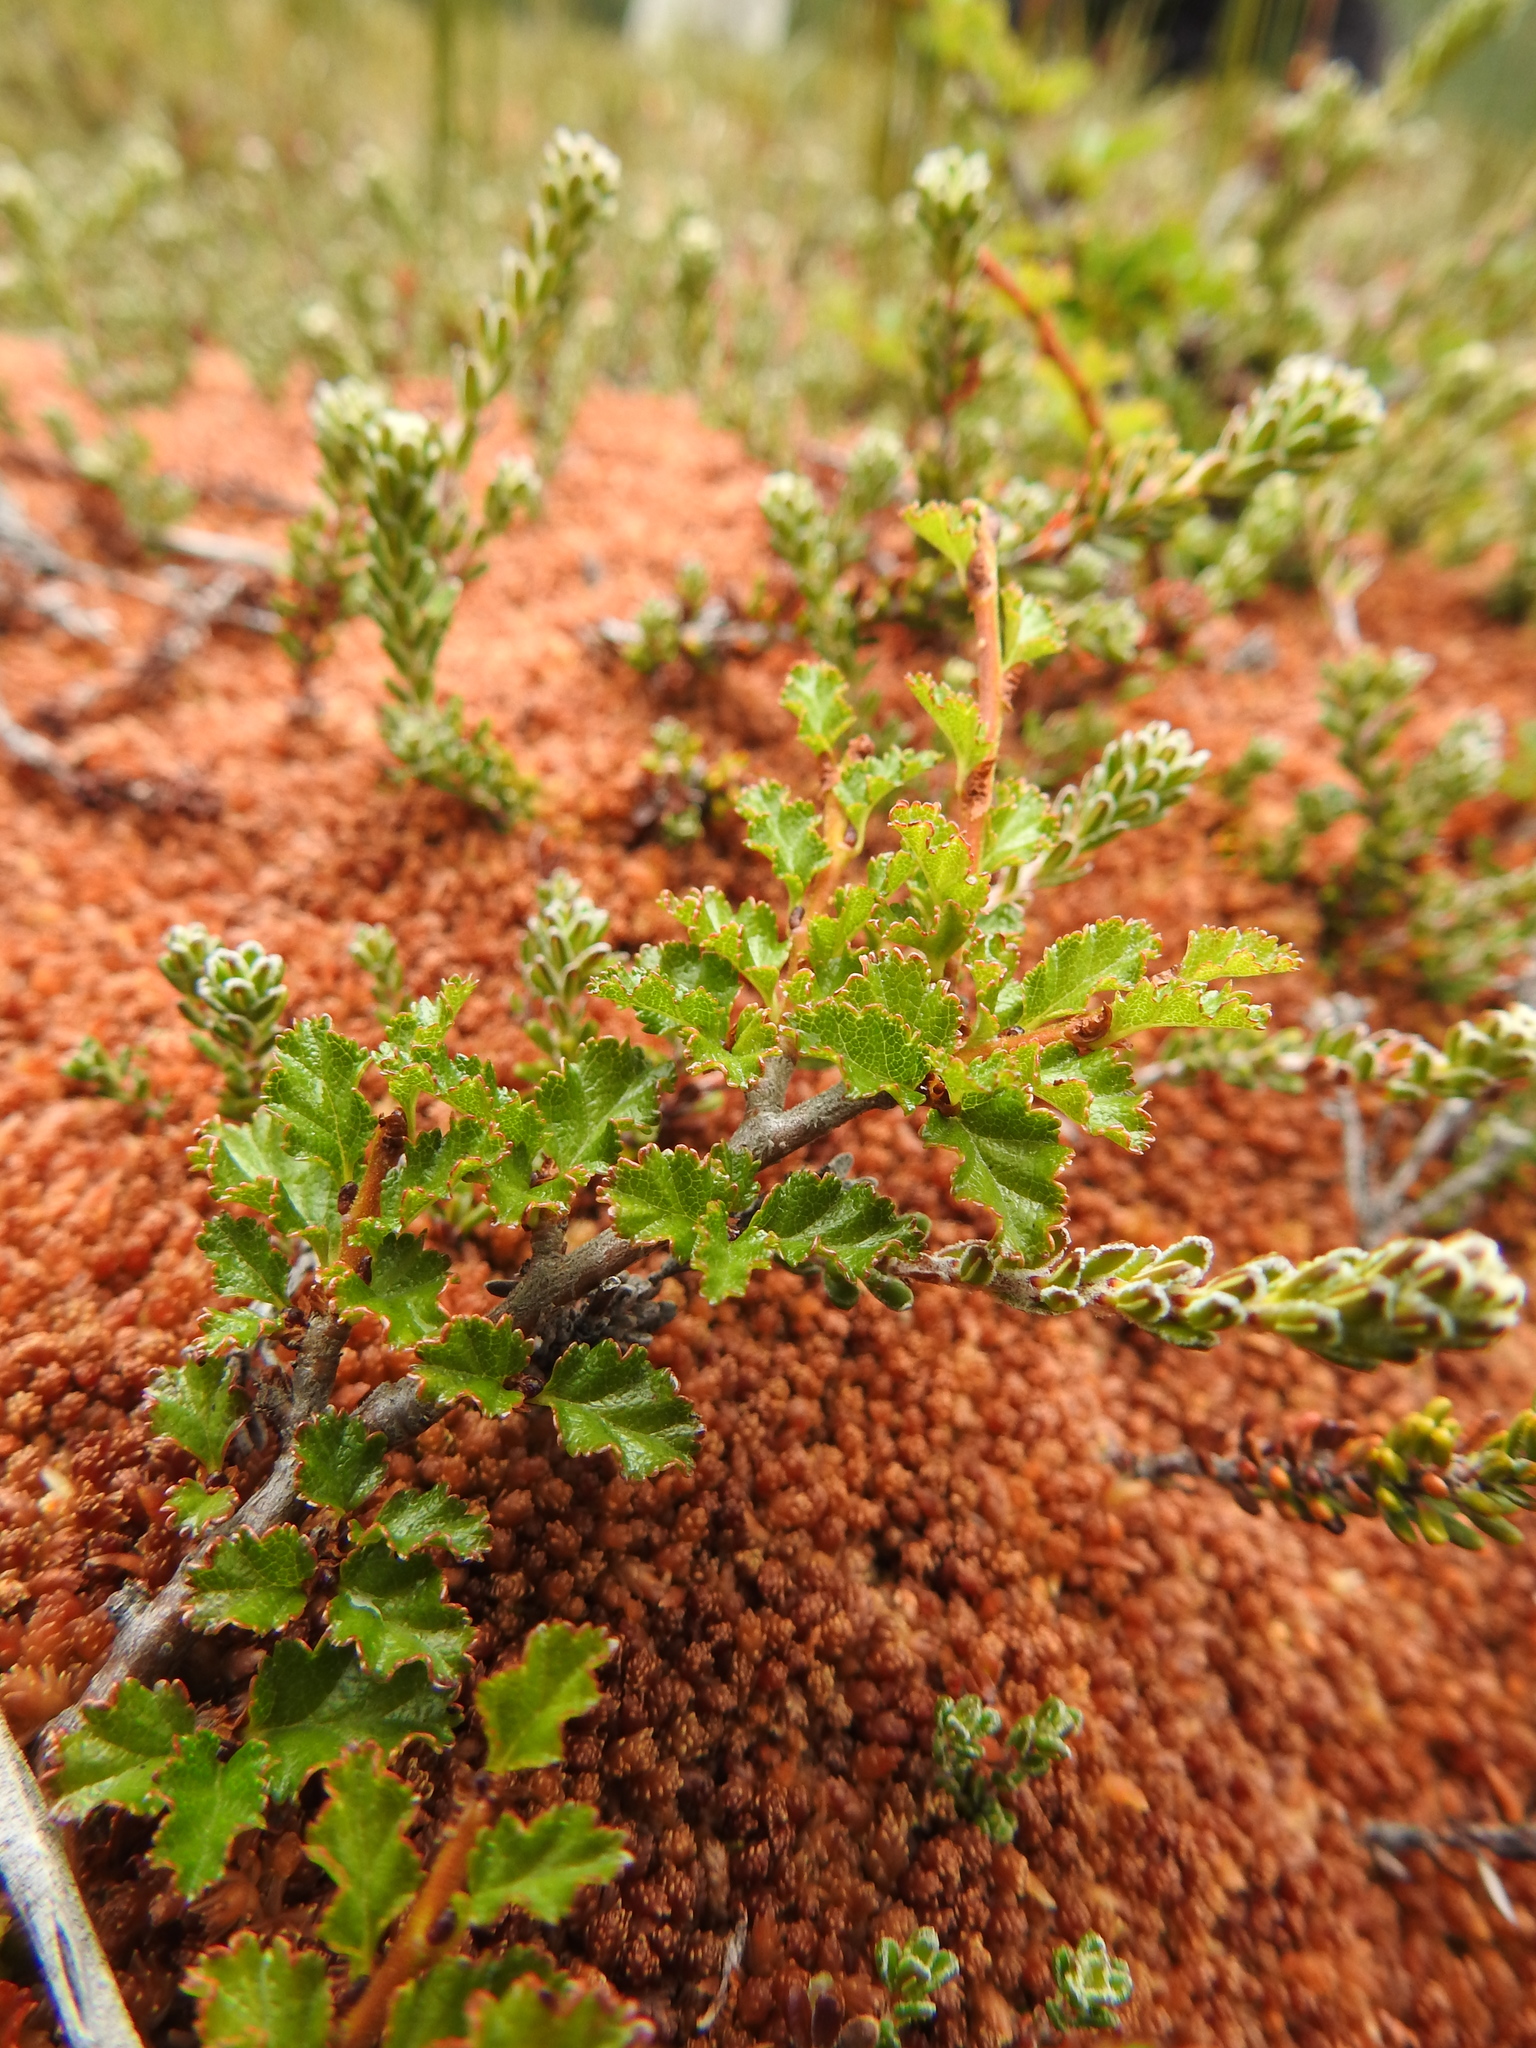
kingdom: Plantae
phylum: Tracheophyta
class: Magnoliopsida
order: Fagales
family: Nothofagaceae
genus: Nothofagus
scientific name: Nothofagus antarctica
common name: Antarctic beech
